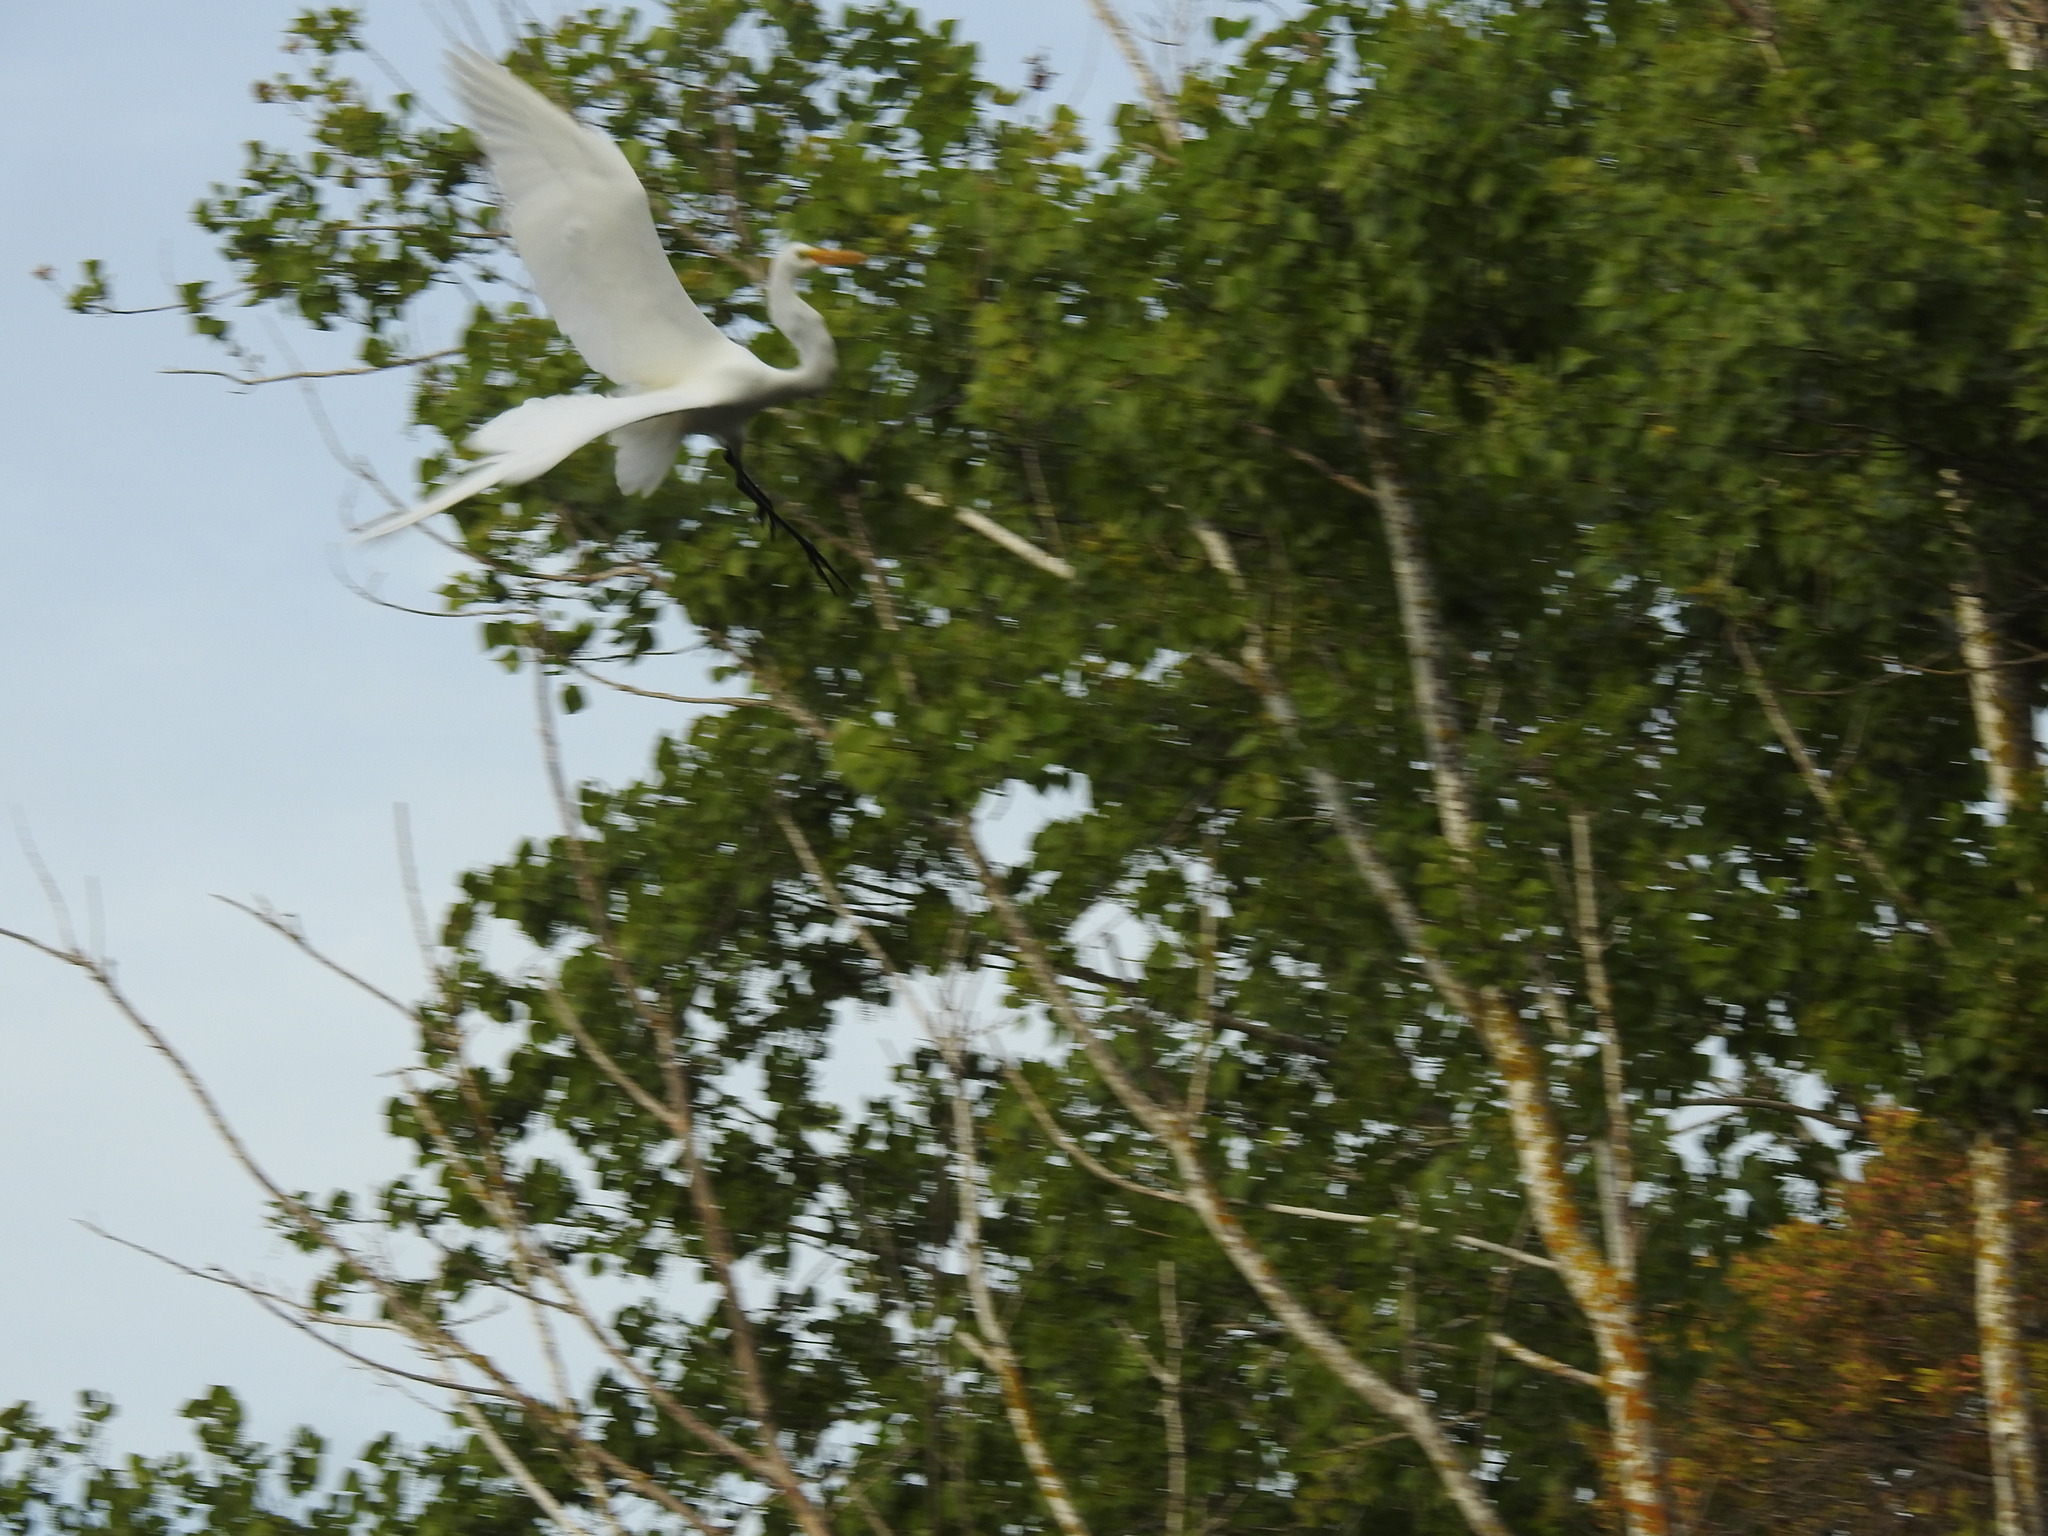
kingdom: Animalia
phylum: Chordata
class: Aves
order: Pelecaniformes
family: Ardeidae
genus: Ardea
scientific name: Ardea alba
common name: Great egret
